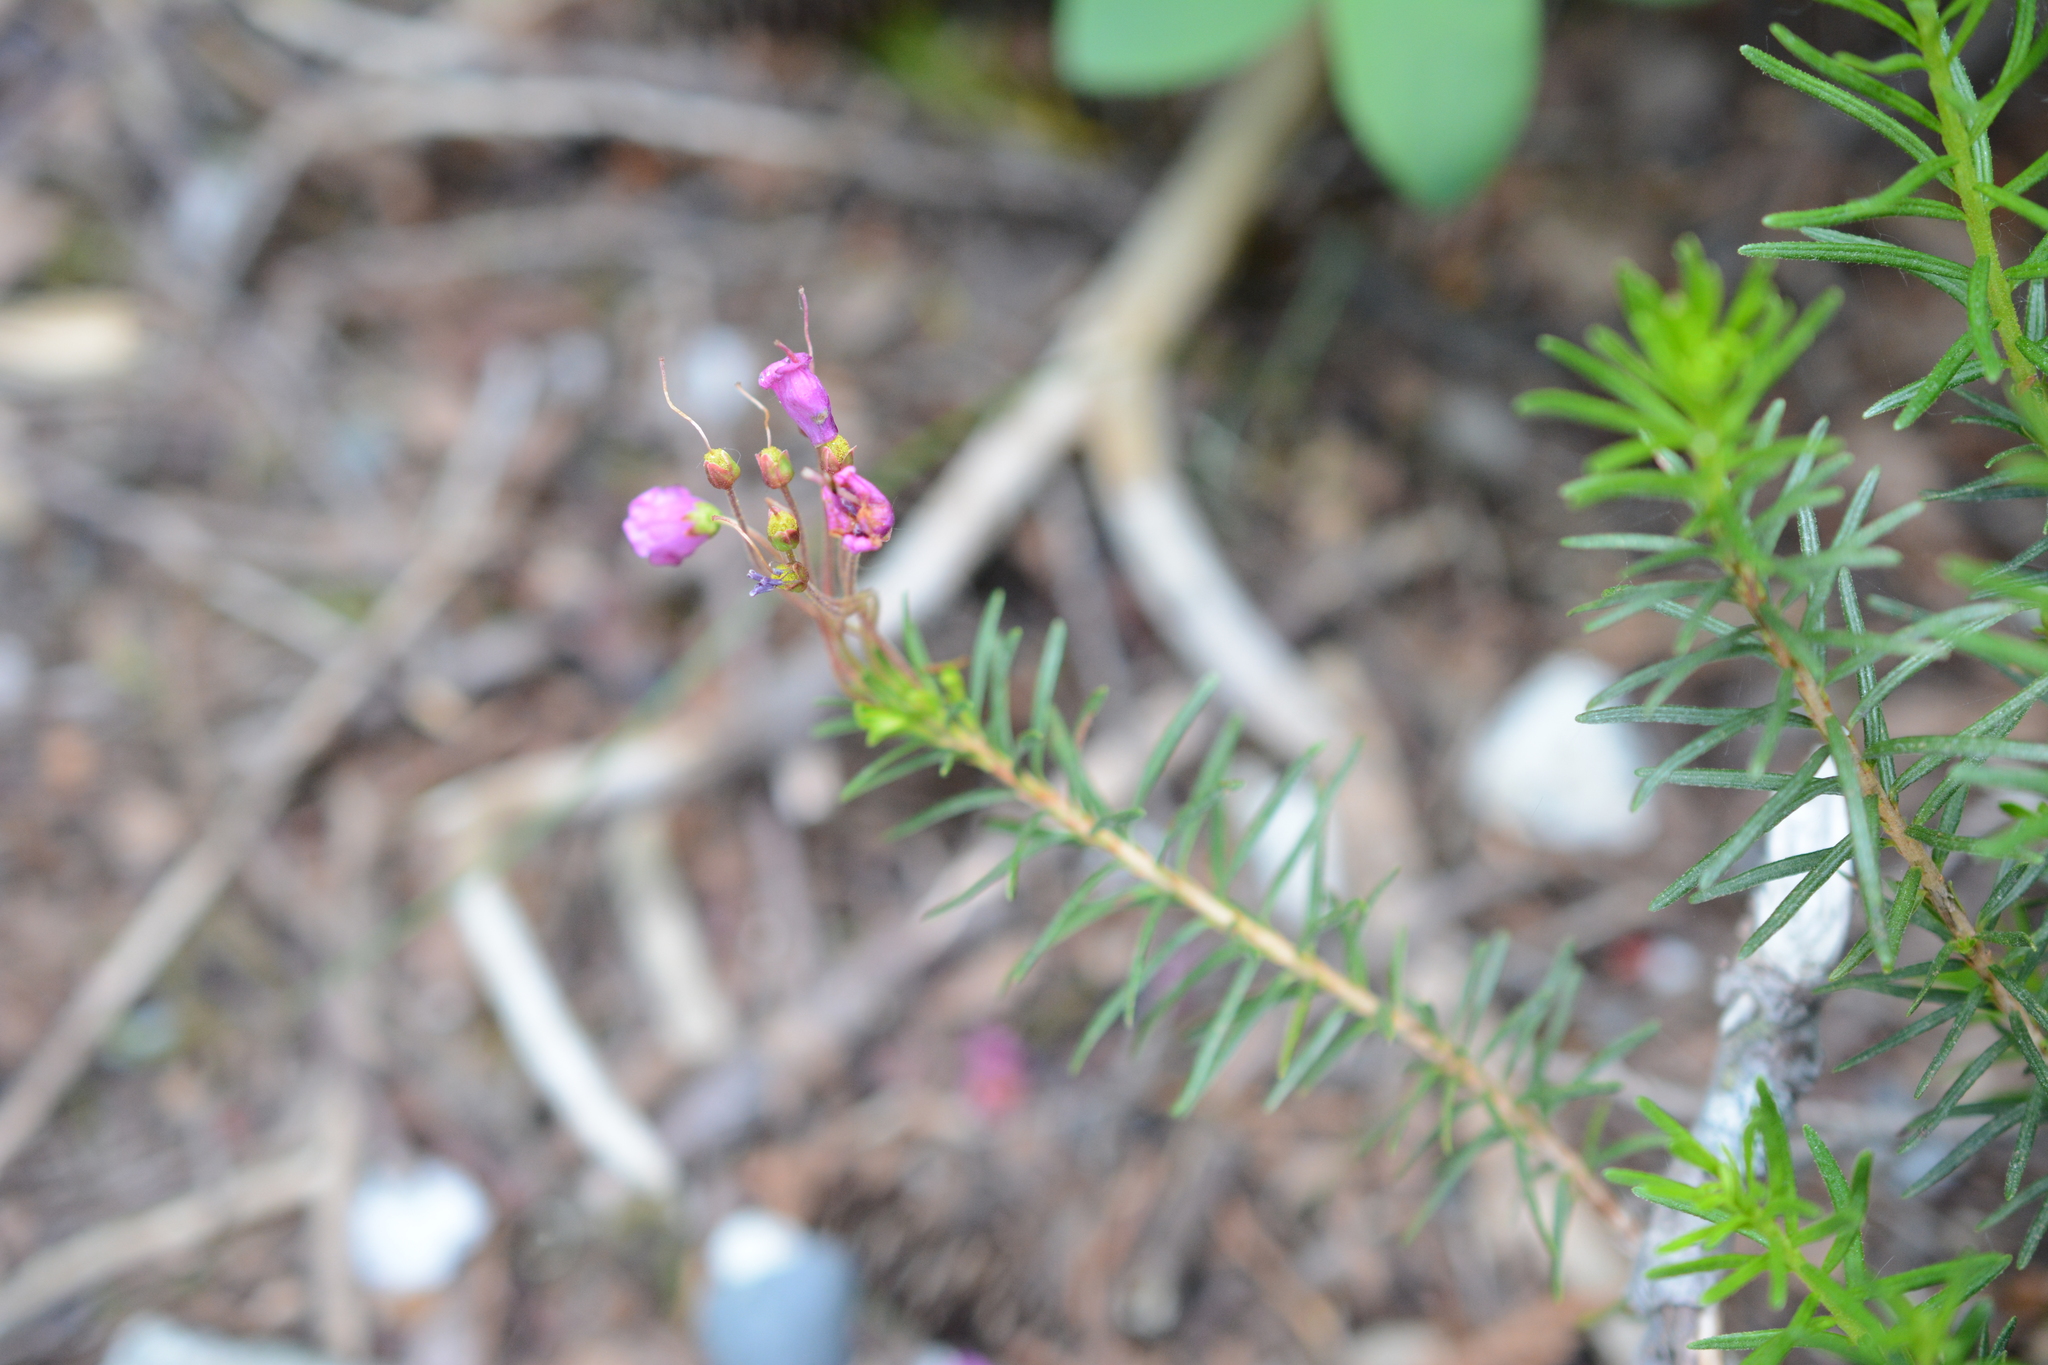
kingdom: Plantae
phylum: Tracheophyta
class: Magnoliopsida
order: Ericales
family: Ericaceae
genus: Phyllodoce
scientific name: Phyllodoce empetriformis
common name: Pink mountain heather
